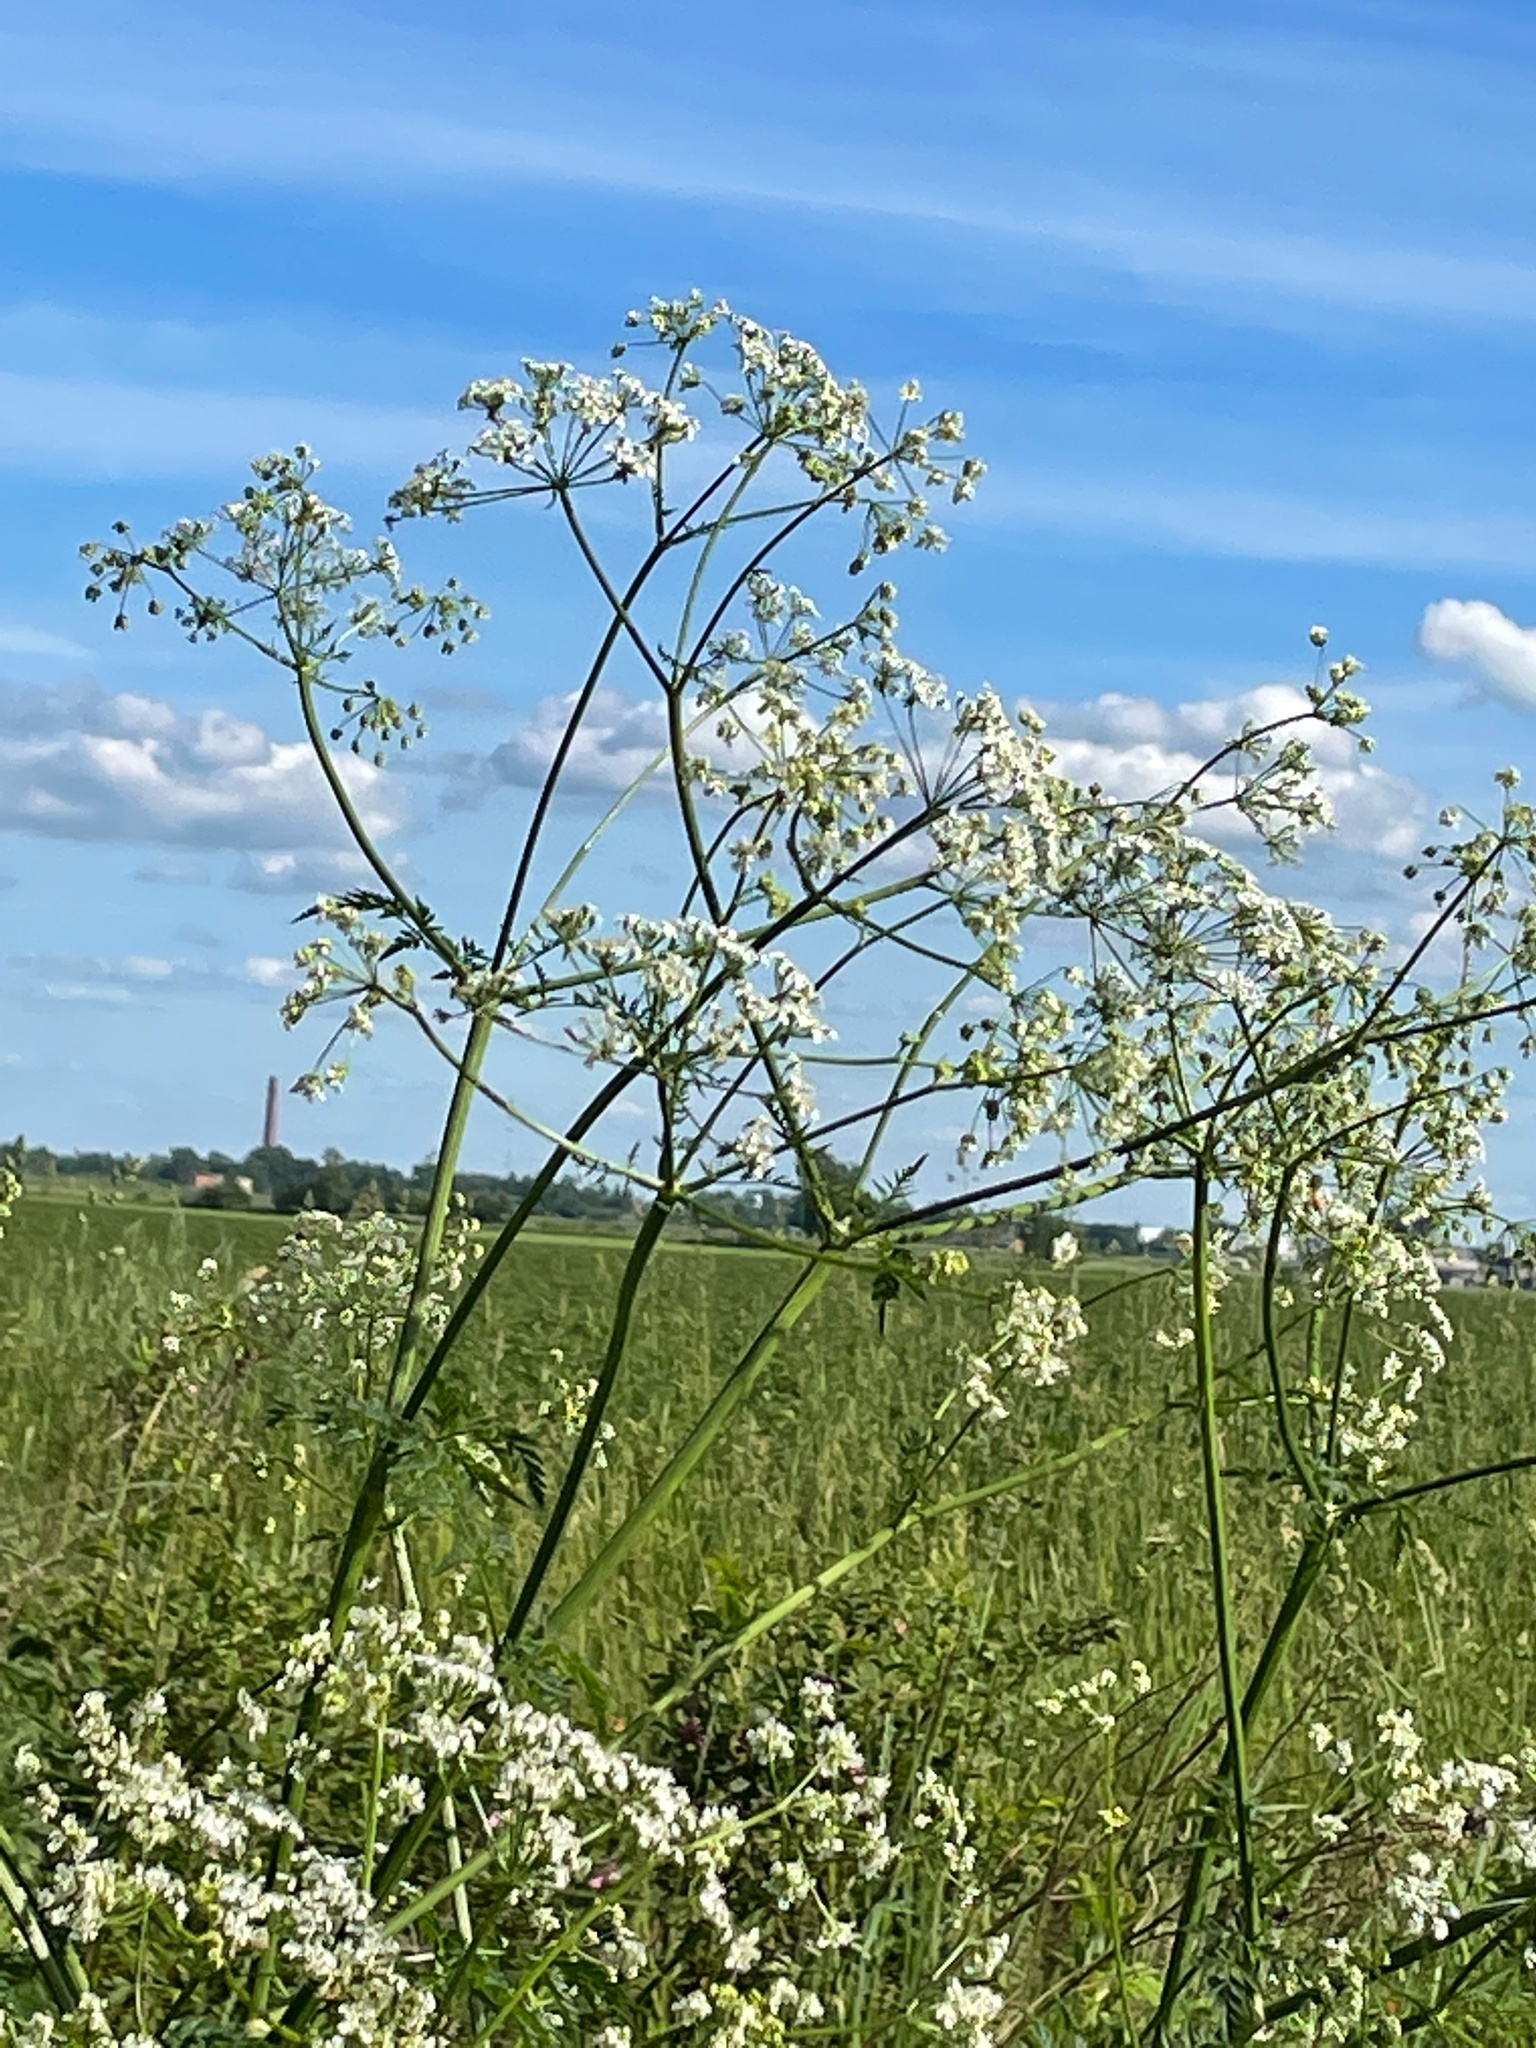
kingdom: Plantae
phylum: Tracheophyta
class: Magnoliopsida
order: Apiales
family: Apiaceae
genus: Anthriscus
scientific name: Anthriscus sylvestris
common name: Cow parsley
